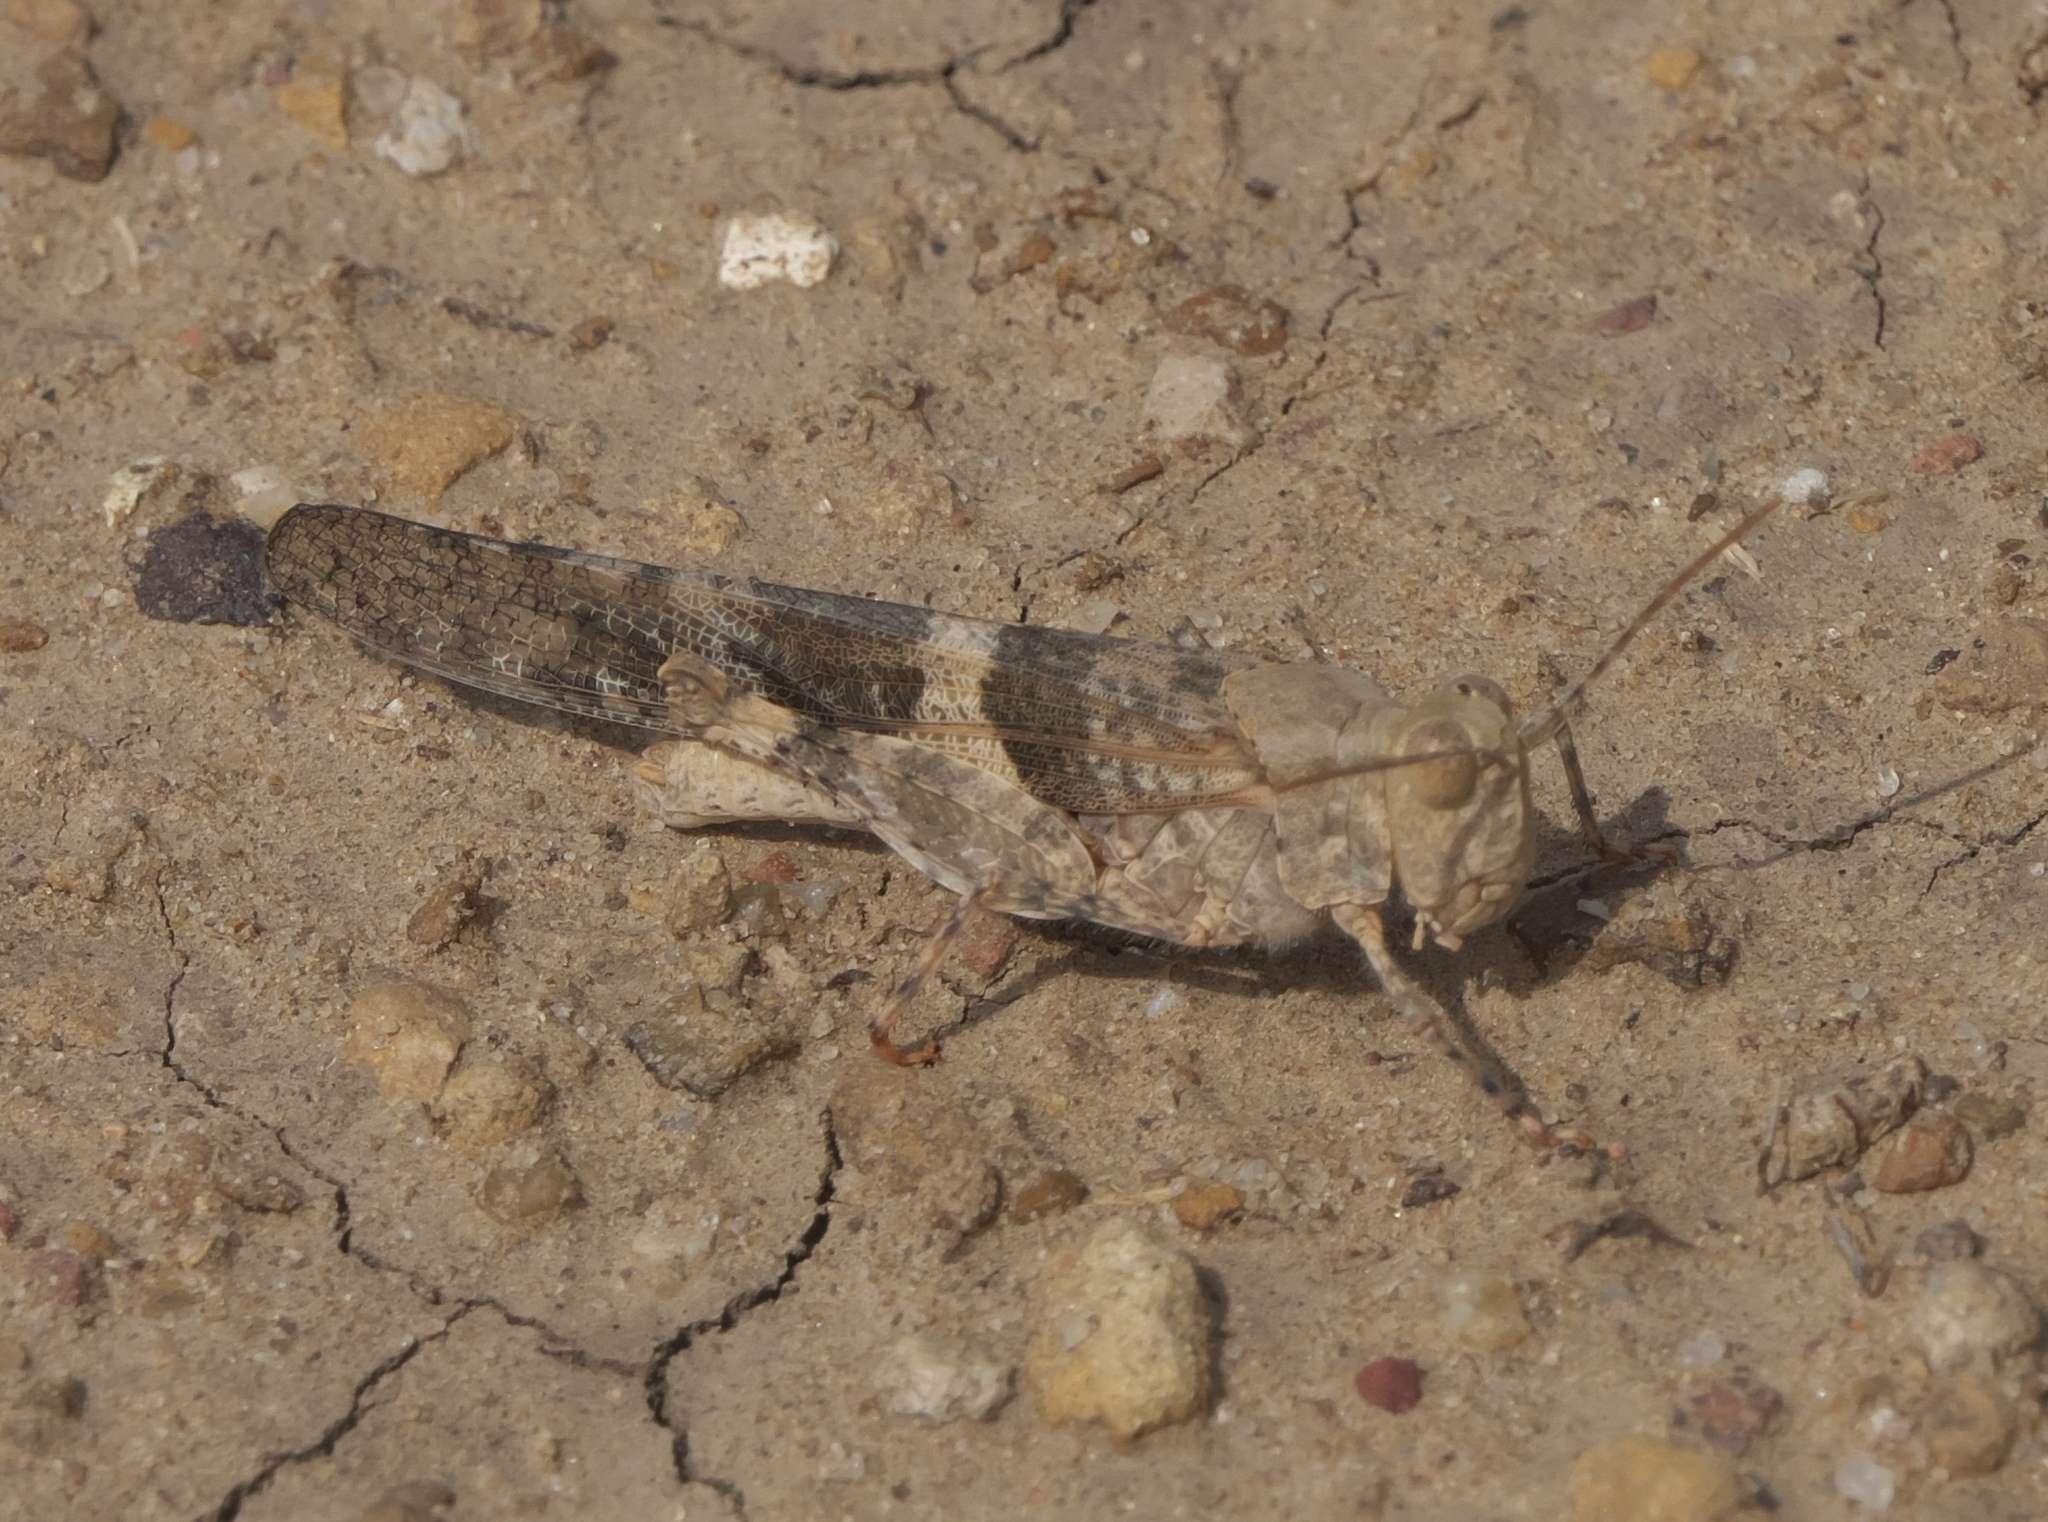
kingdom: Animalia
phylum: Arthropoda
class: Insecta
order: Orthoptera
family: Acrididae
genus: Trimerotropis
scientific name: Trimerotropis pallidipennis
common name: Pallid-winged grasshopper
